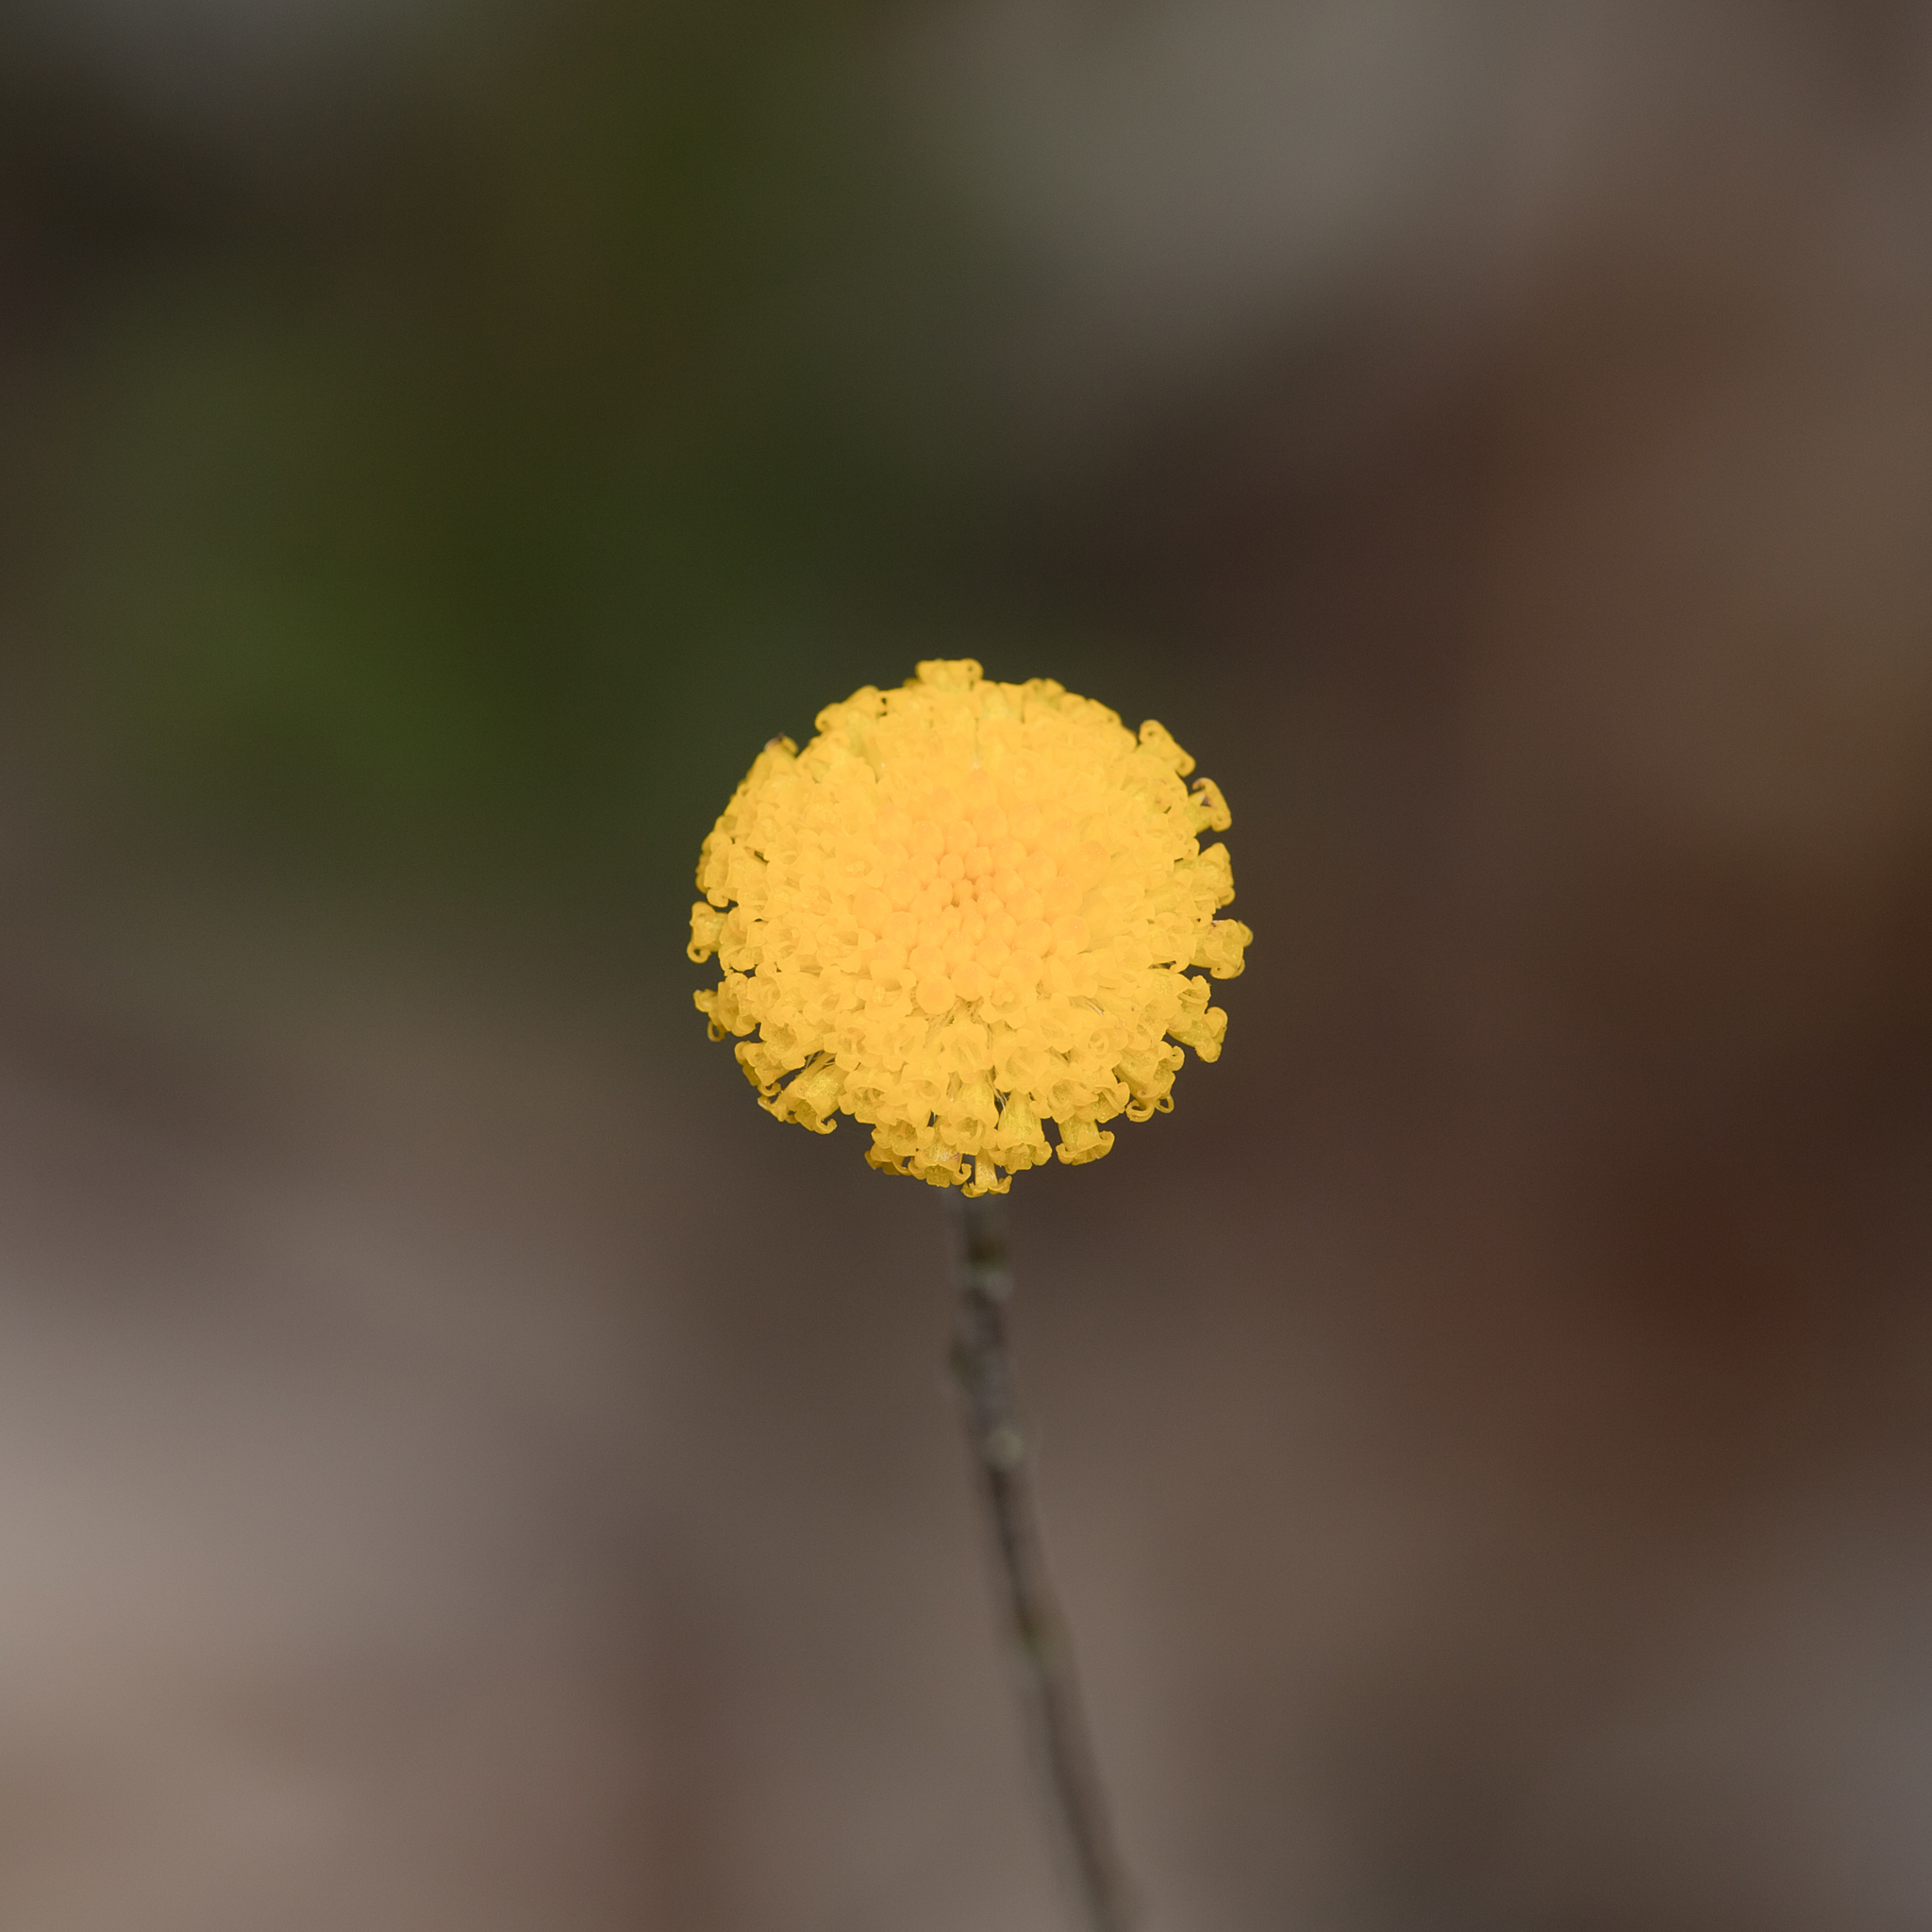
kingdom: Plantae
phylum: Tracheophyta
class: Magnoliopsida
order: Asterales
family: Asteraceae
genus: Leptorhynchos
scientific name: Leptorhynchos squamatus
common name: Scaly-buttons
